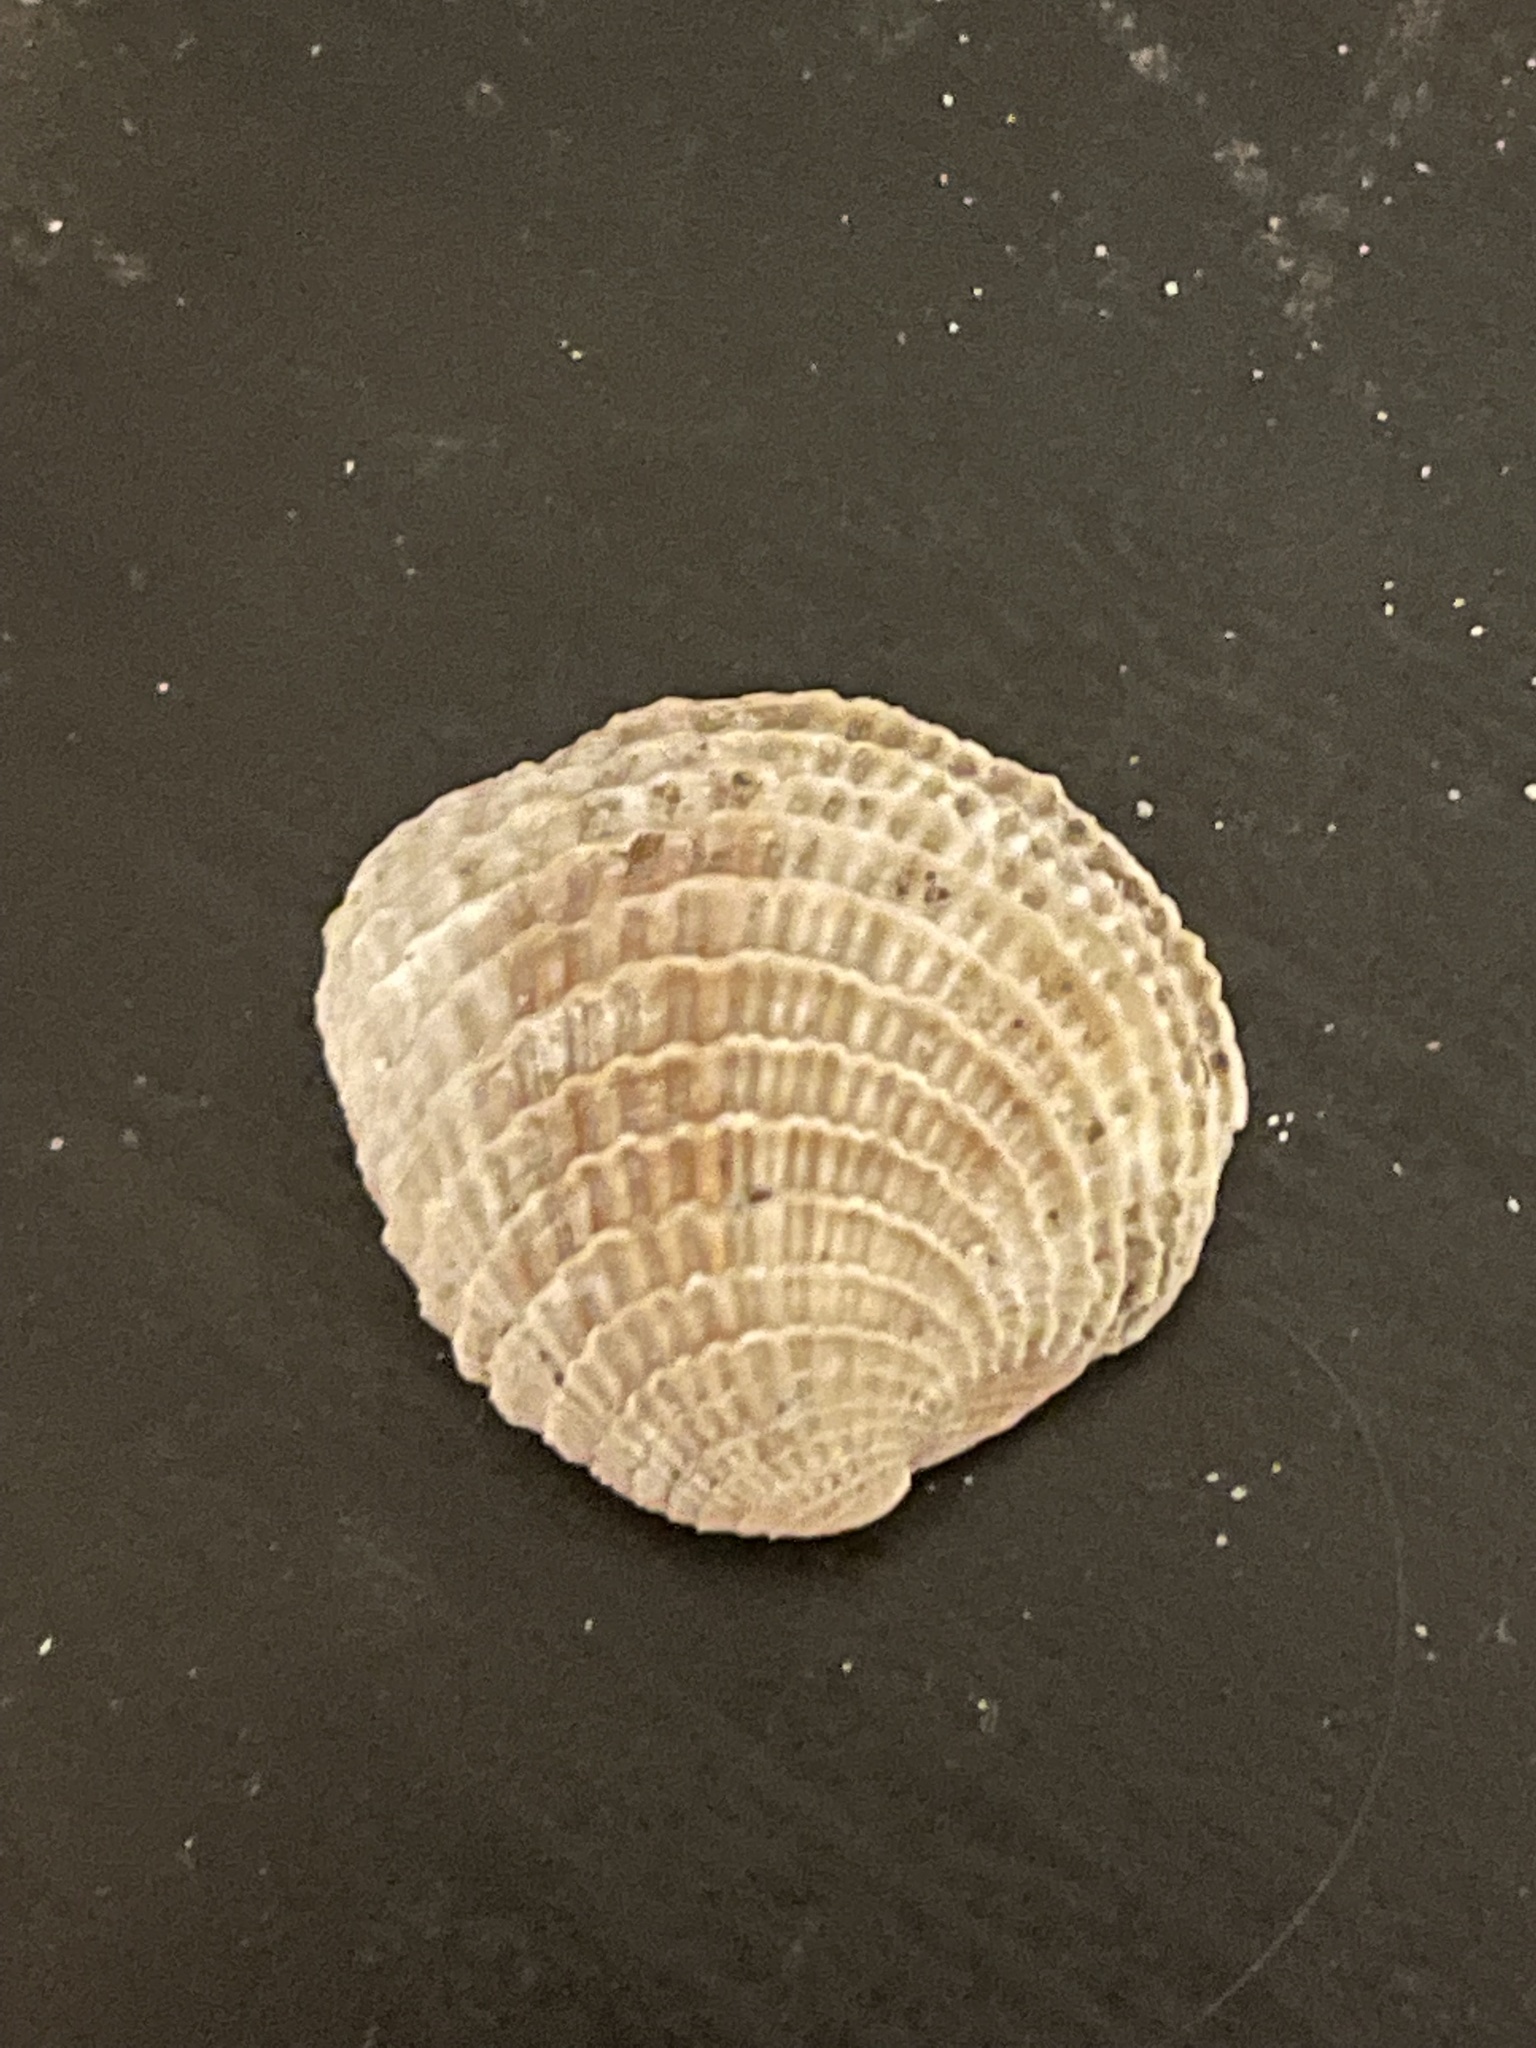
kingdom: Animalia
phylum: Mollusca
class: Bivalvia
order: Venerida
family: Veneridae
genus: Chione
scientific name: Chione elevata
